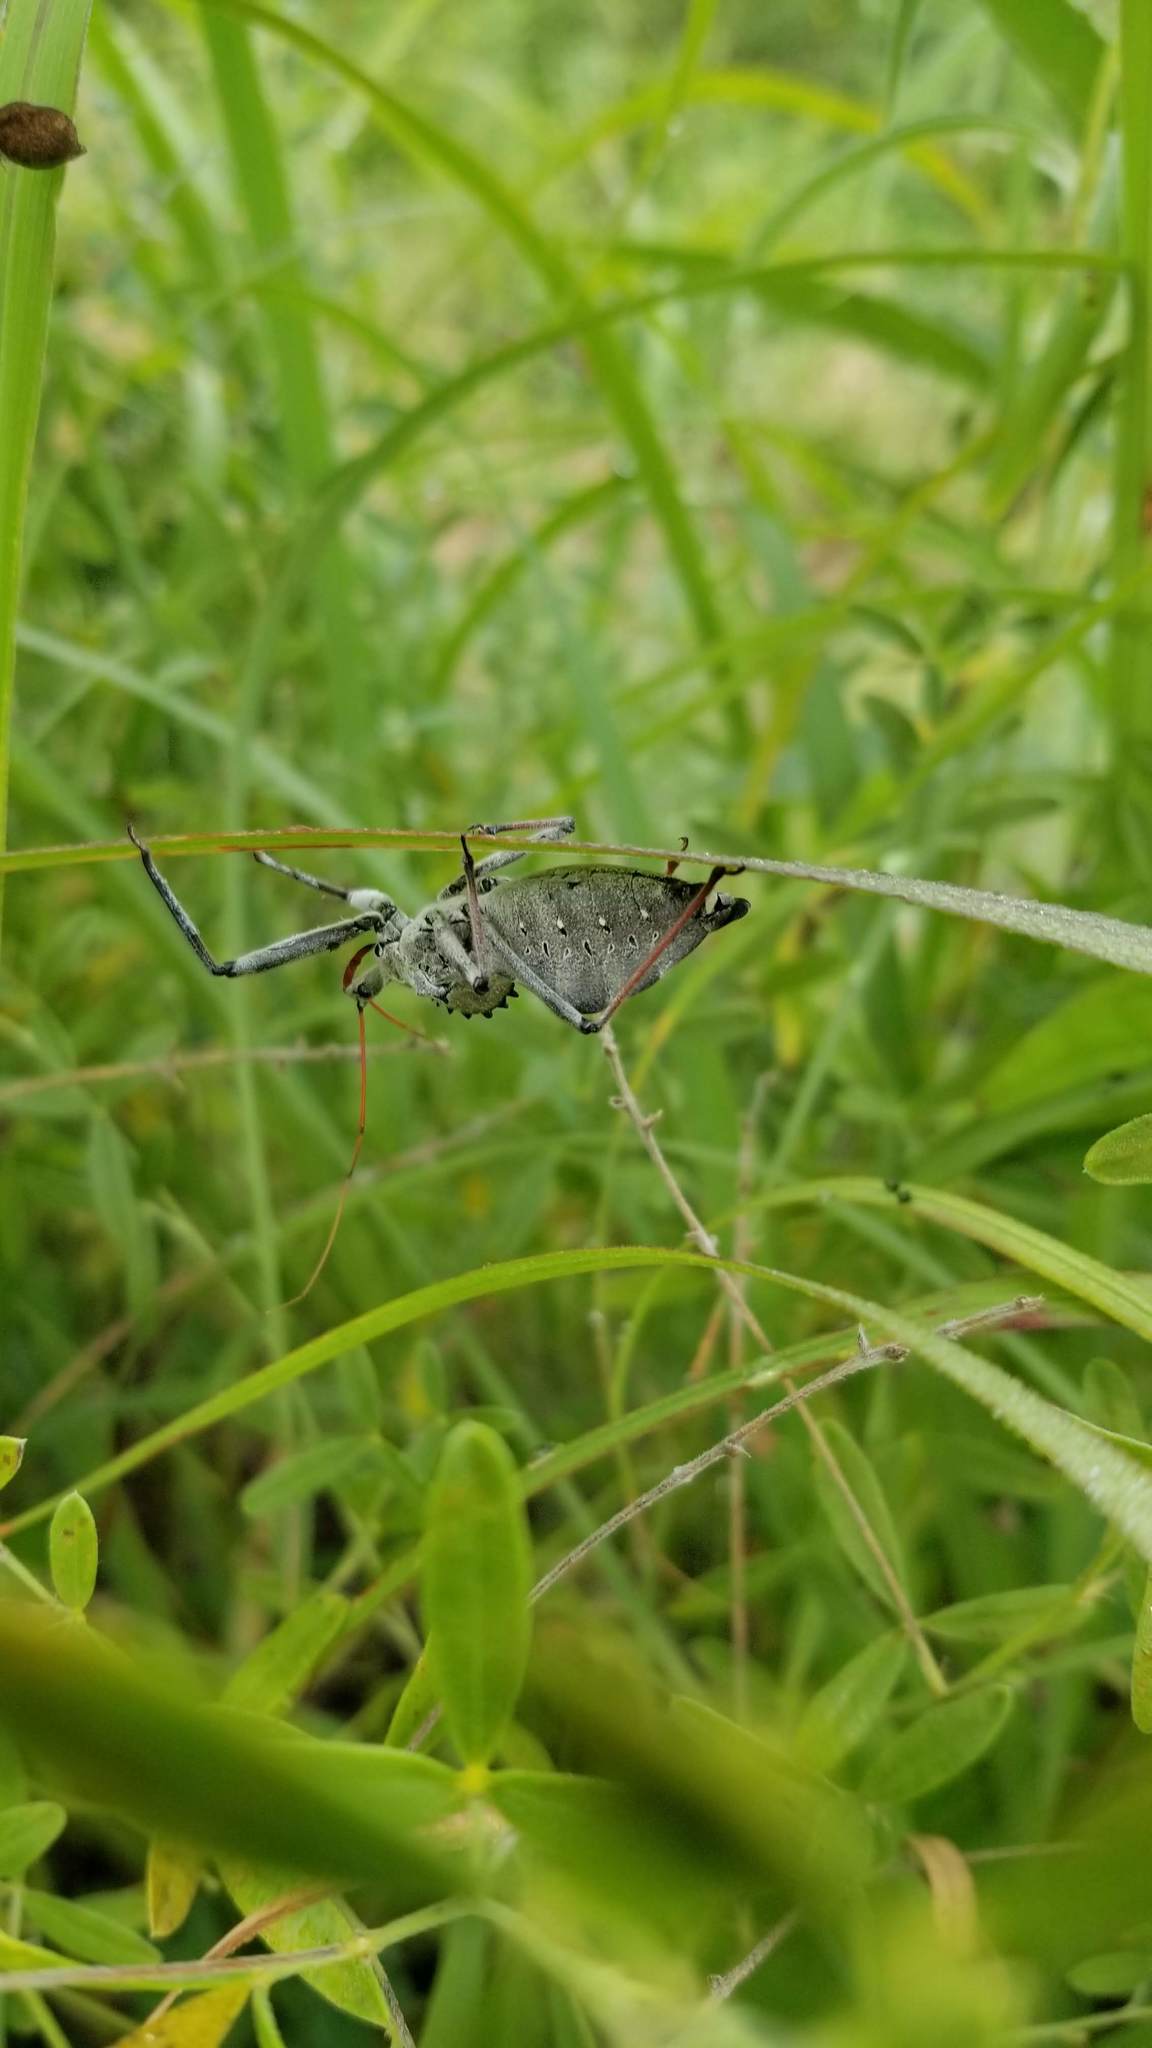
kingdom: Animalia
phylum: Arthropoda
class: Insecta
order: Hemiptera
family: Reduviidae
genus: Arilus
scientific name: Arilus cristatus
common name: North american wheel bug
